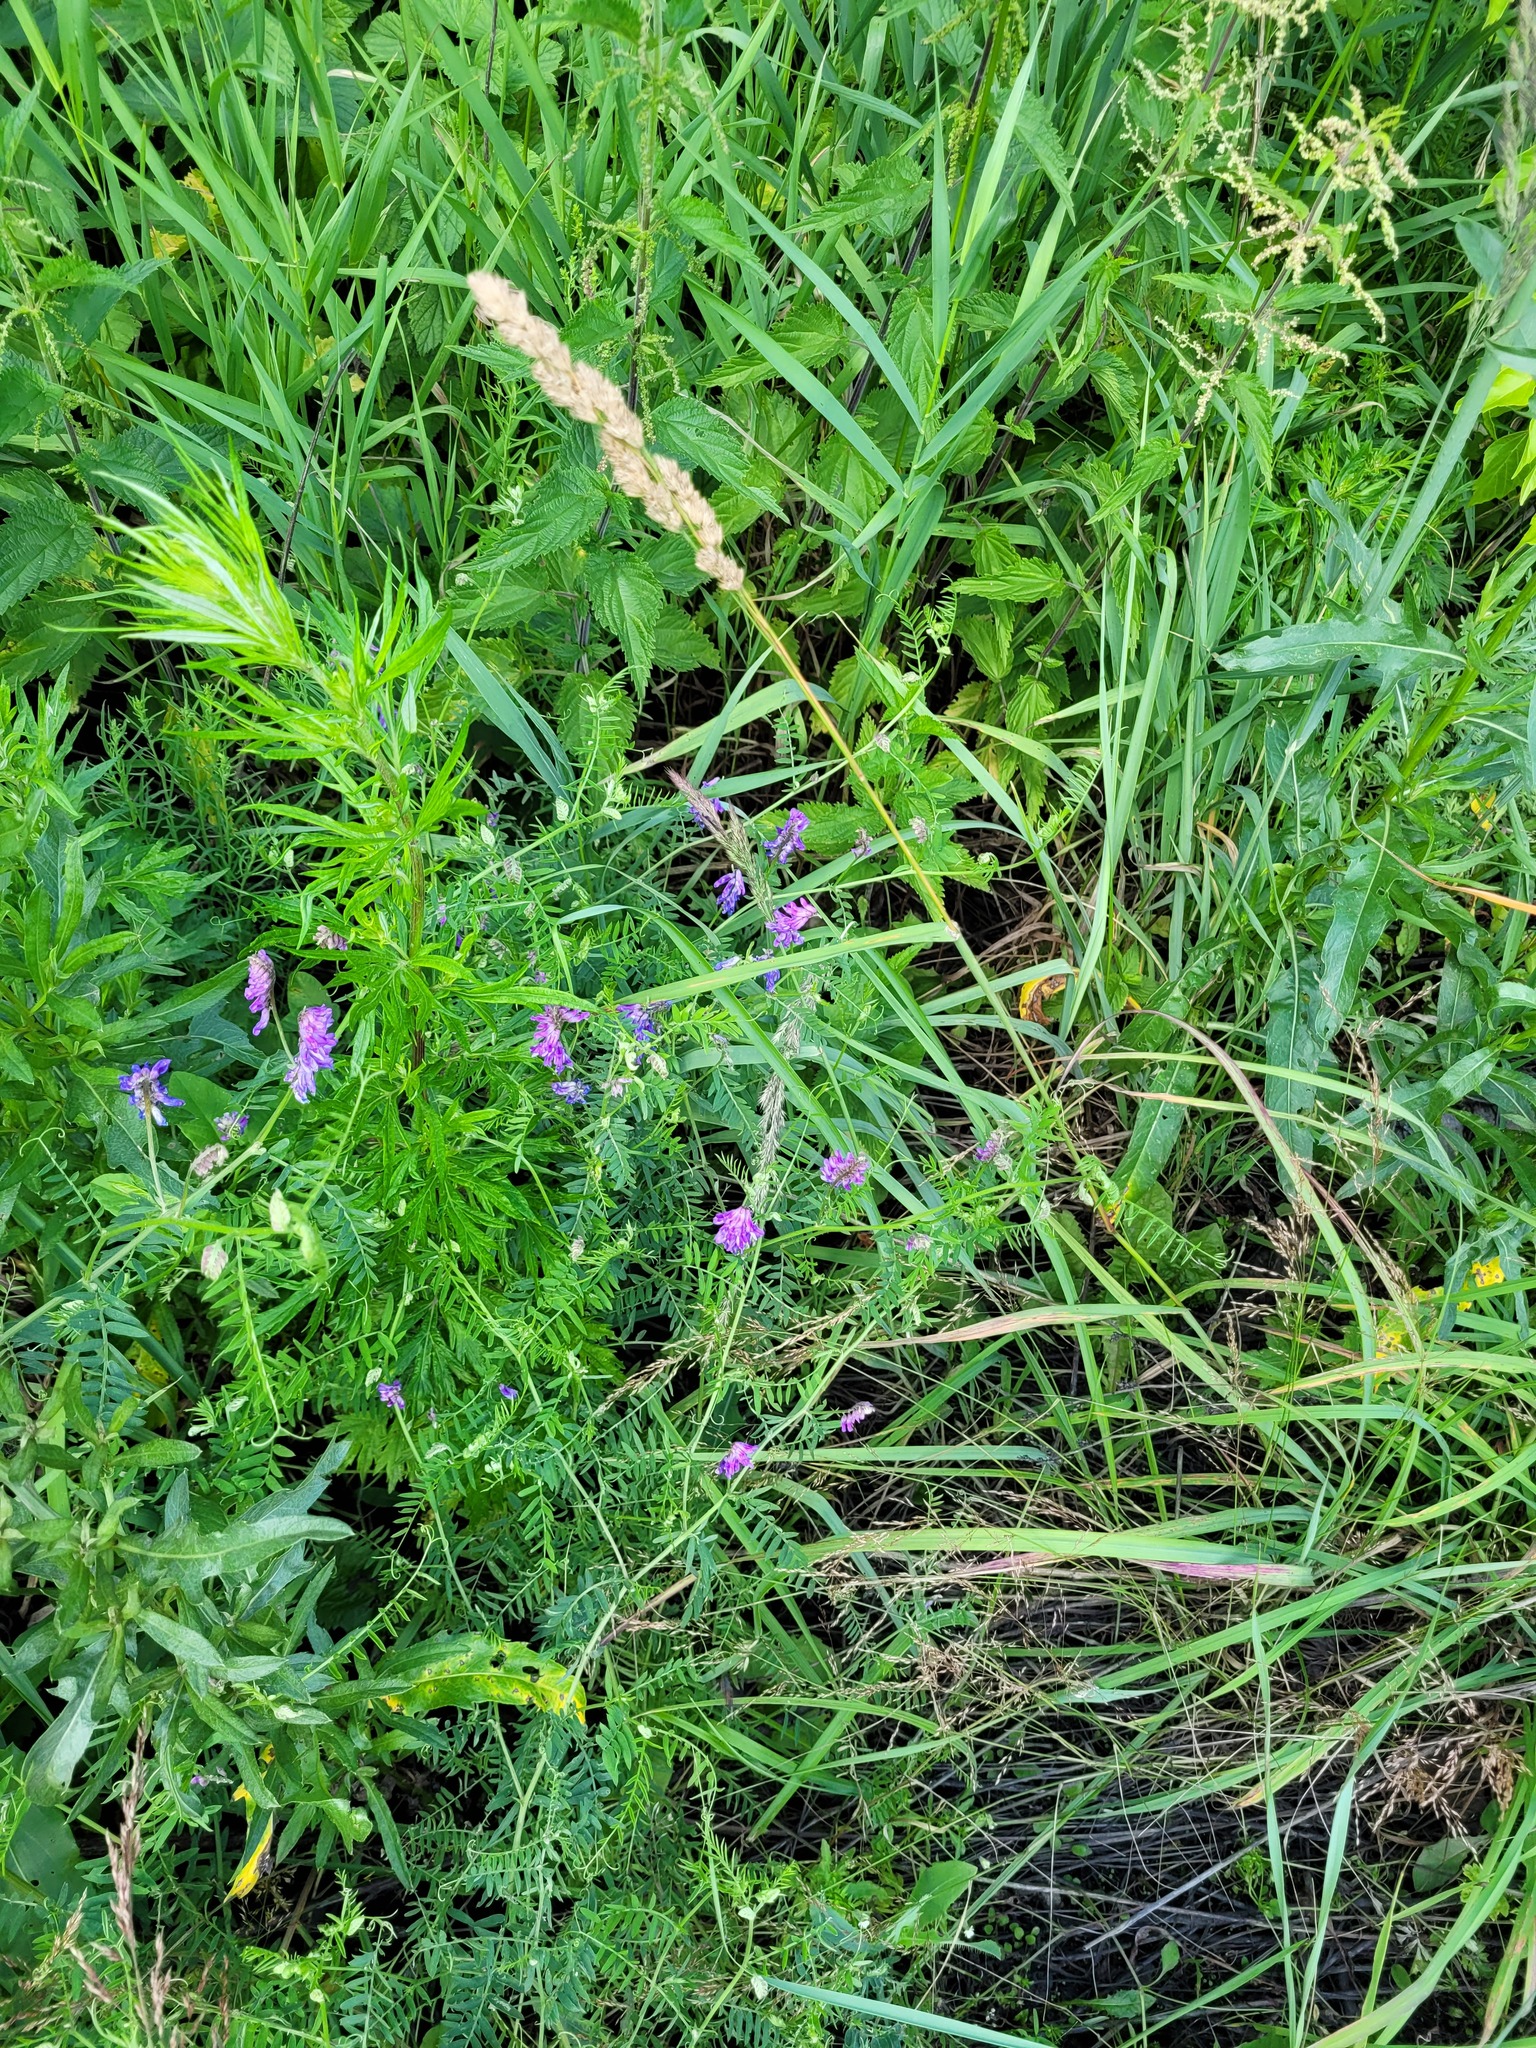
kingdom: Plantae
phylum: Tracheophyta
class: Magnoliopsida
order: Fabales
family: Fabaceae
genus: Vicia
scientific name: Vicia cracca
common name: Bird vetch
